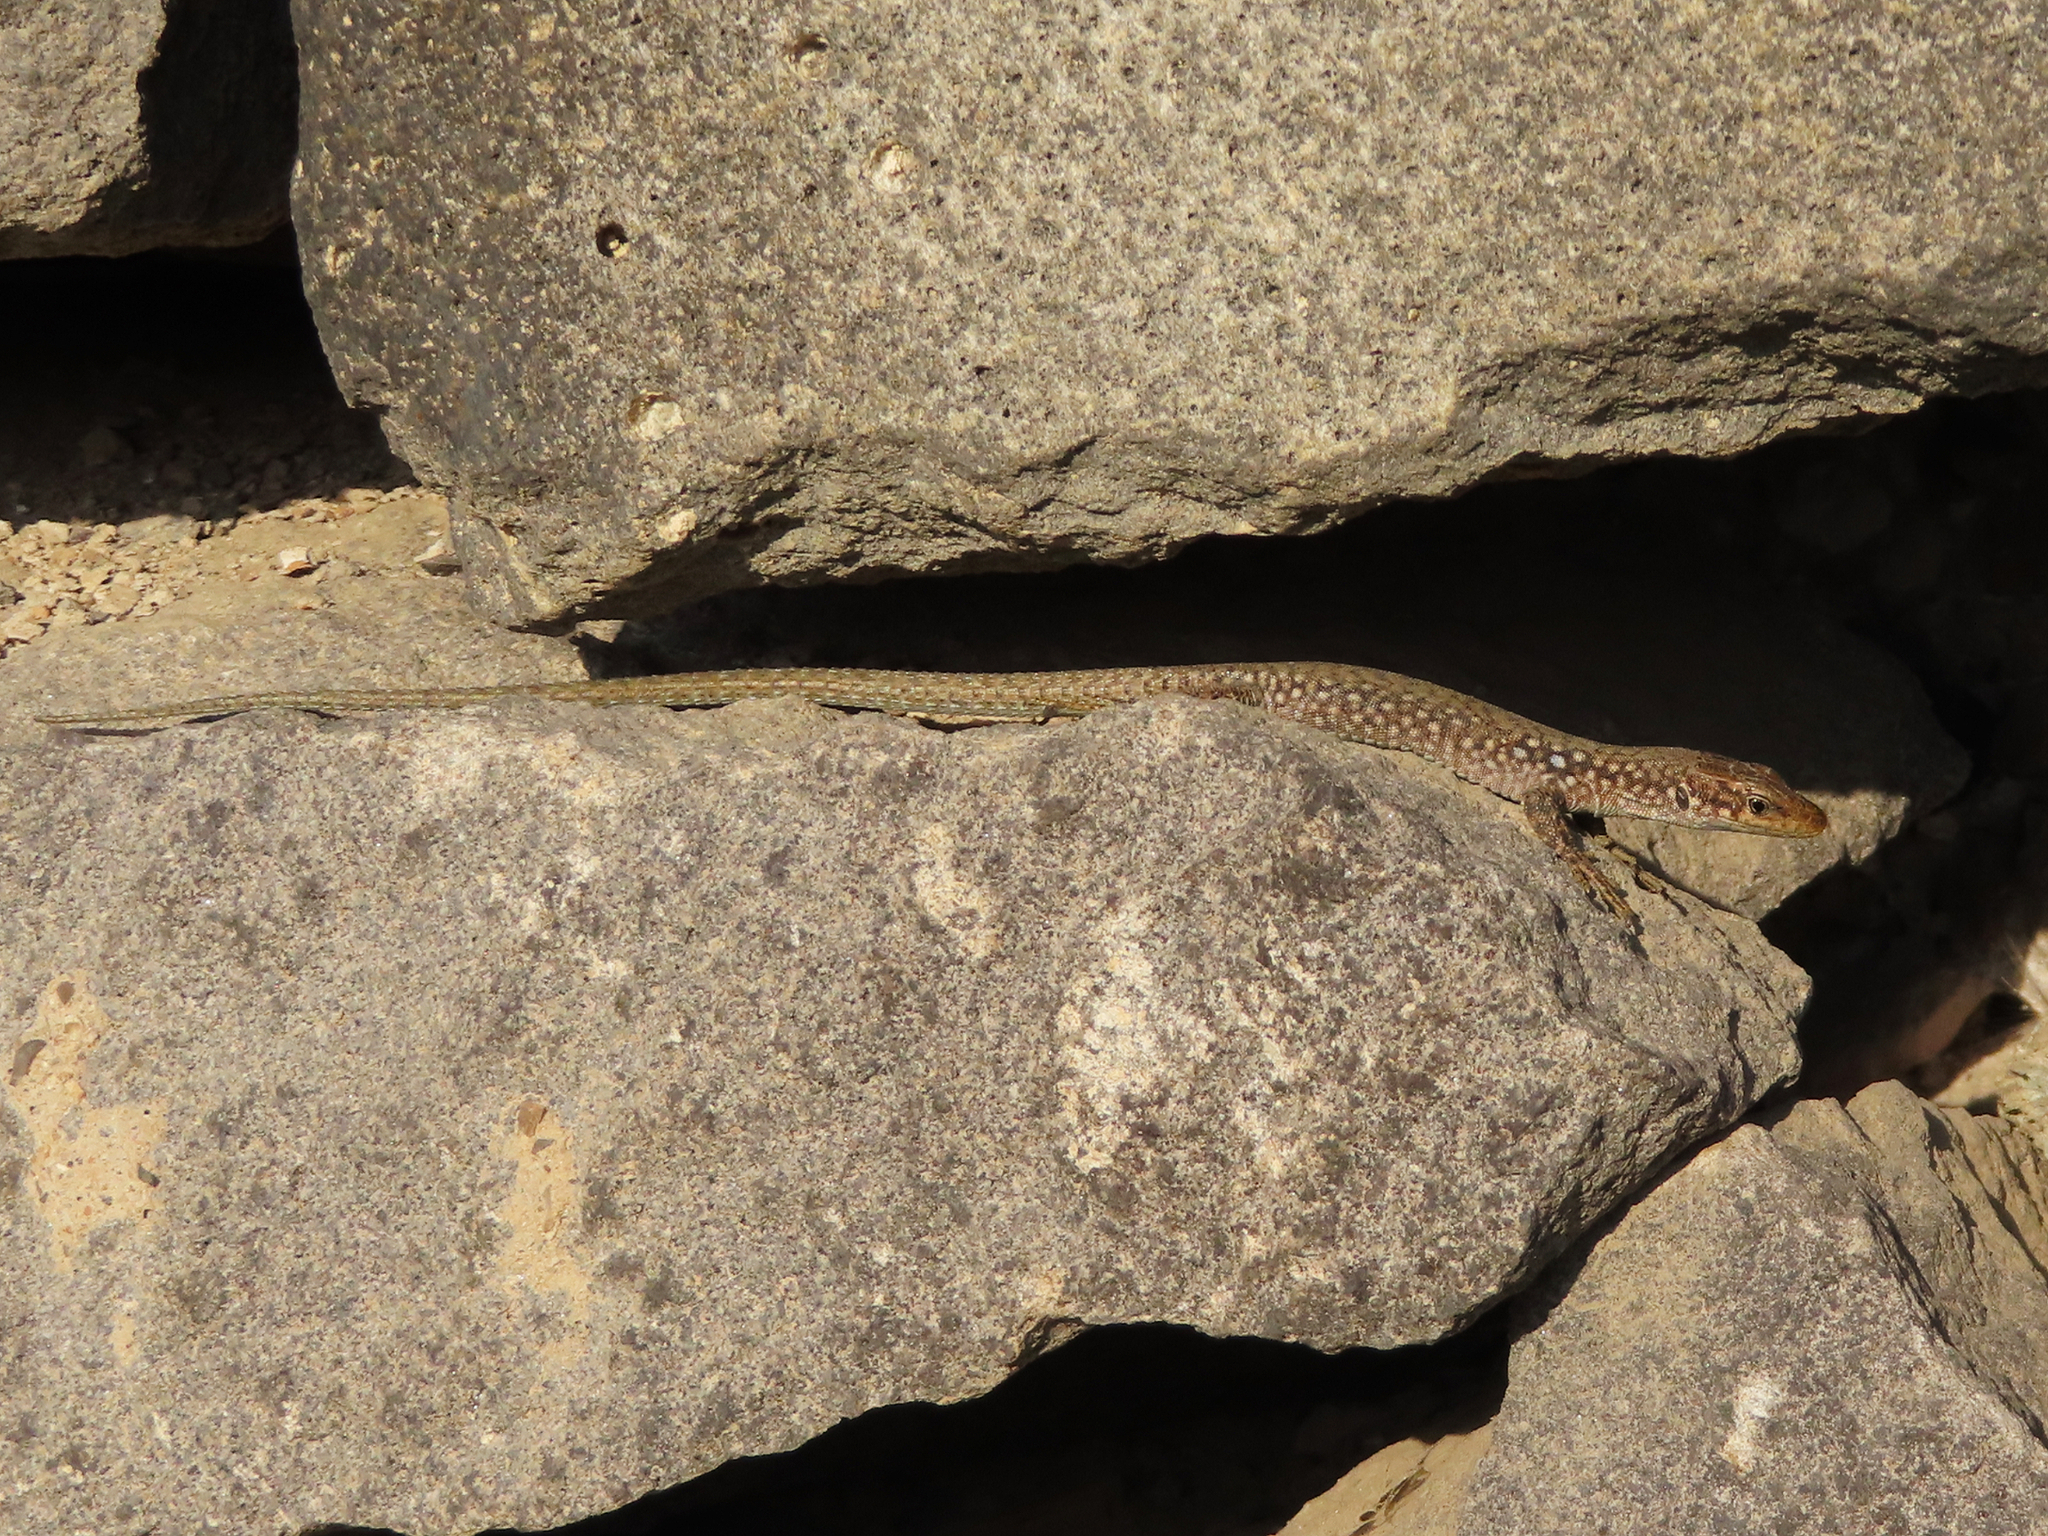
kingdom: Animalia
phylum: Chordata
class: Squamata
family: Lacertidae
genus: Darevskia
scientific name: Darevskia
